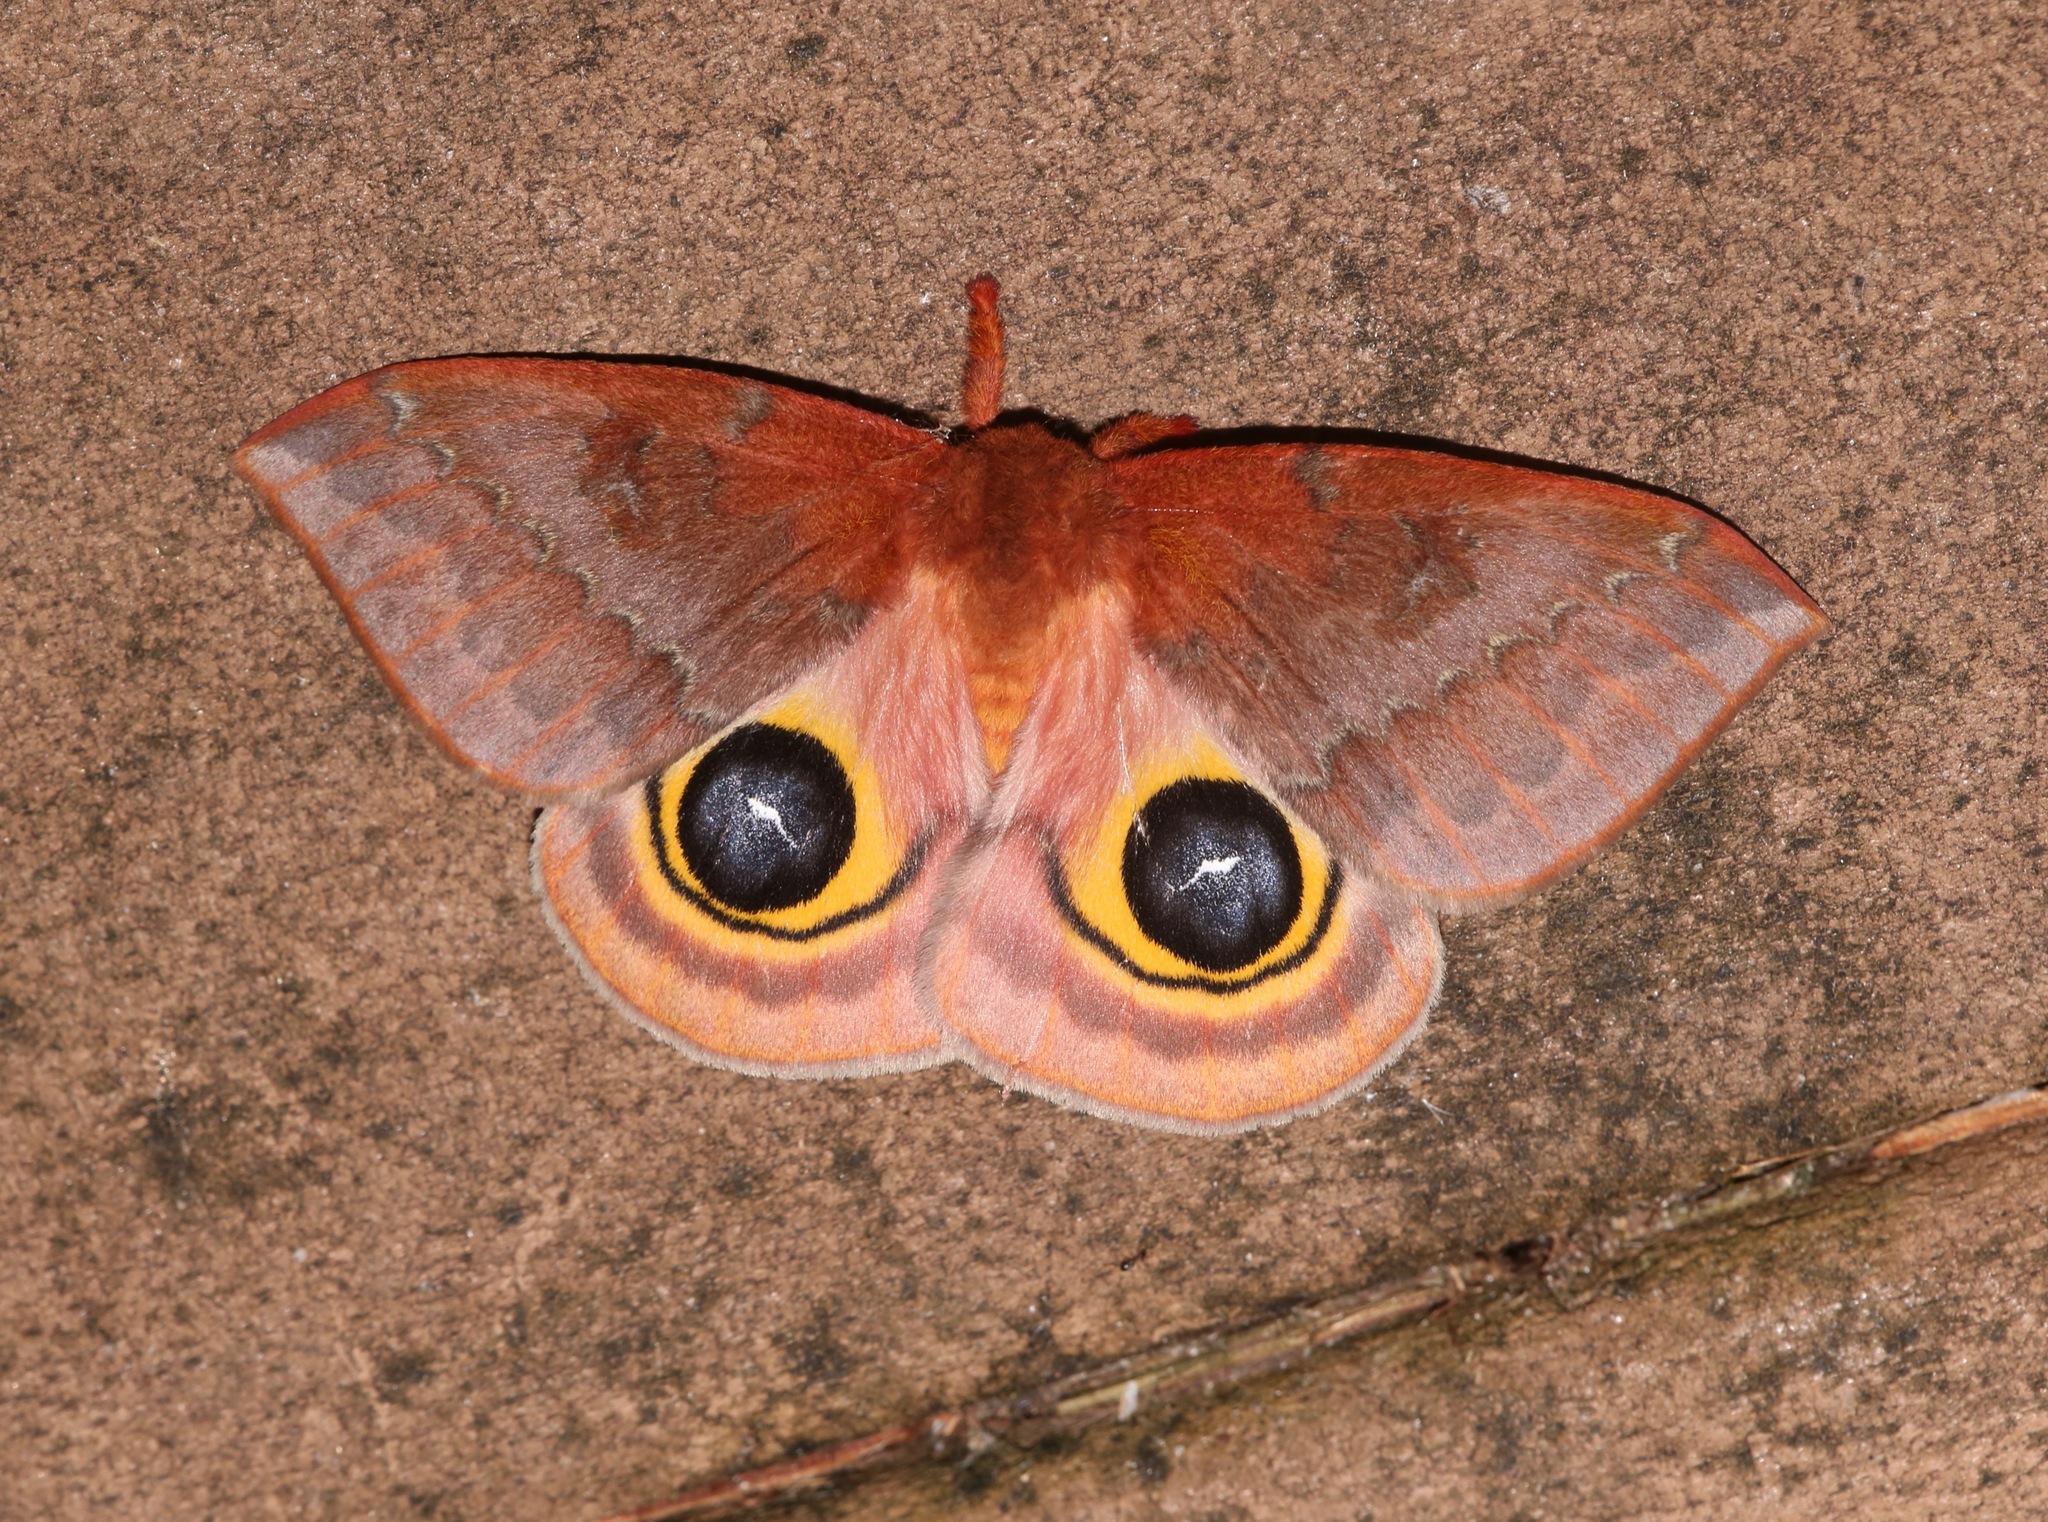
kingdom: Animalia
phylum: Arthropoda
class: Insecta
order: Lepidoptera
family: Saturniidae
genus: Automeris
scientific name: Automeris io
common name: Io moth
